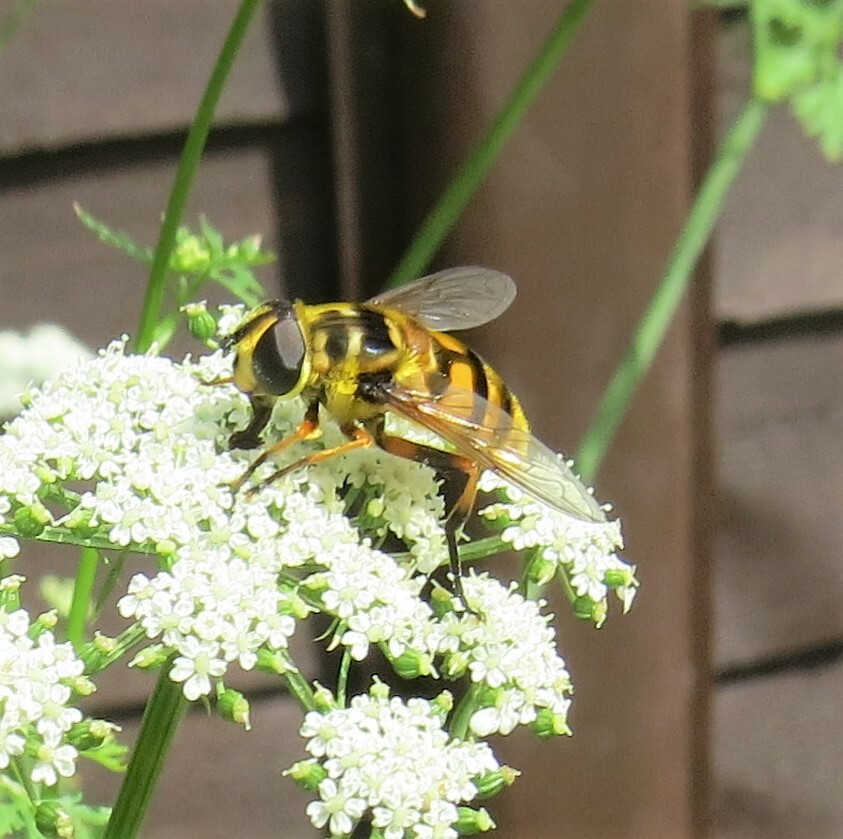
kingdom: Animalia
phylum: Arthropoda
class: Insecta
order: Diptera
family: Syrphidae
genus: Myathropa
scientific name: Myathropa florea
